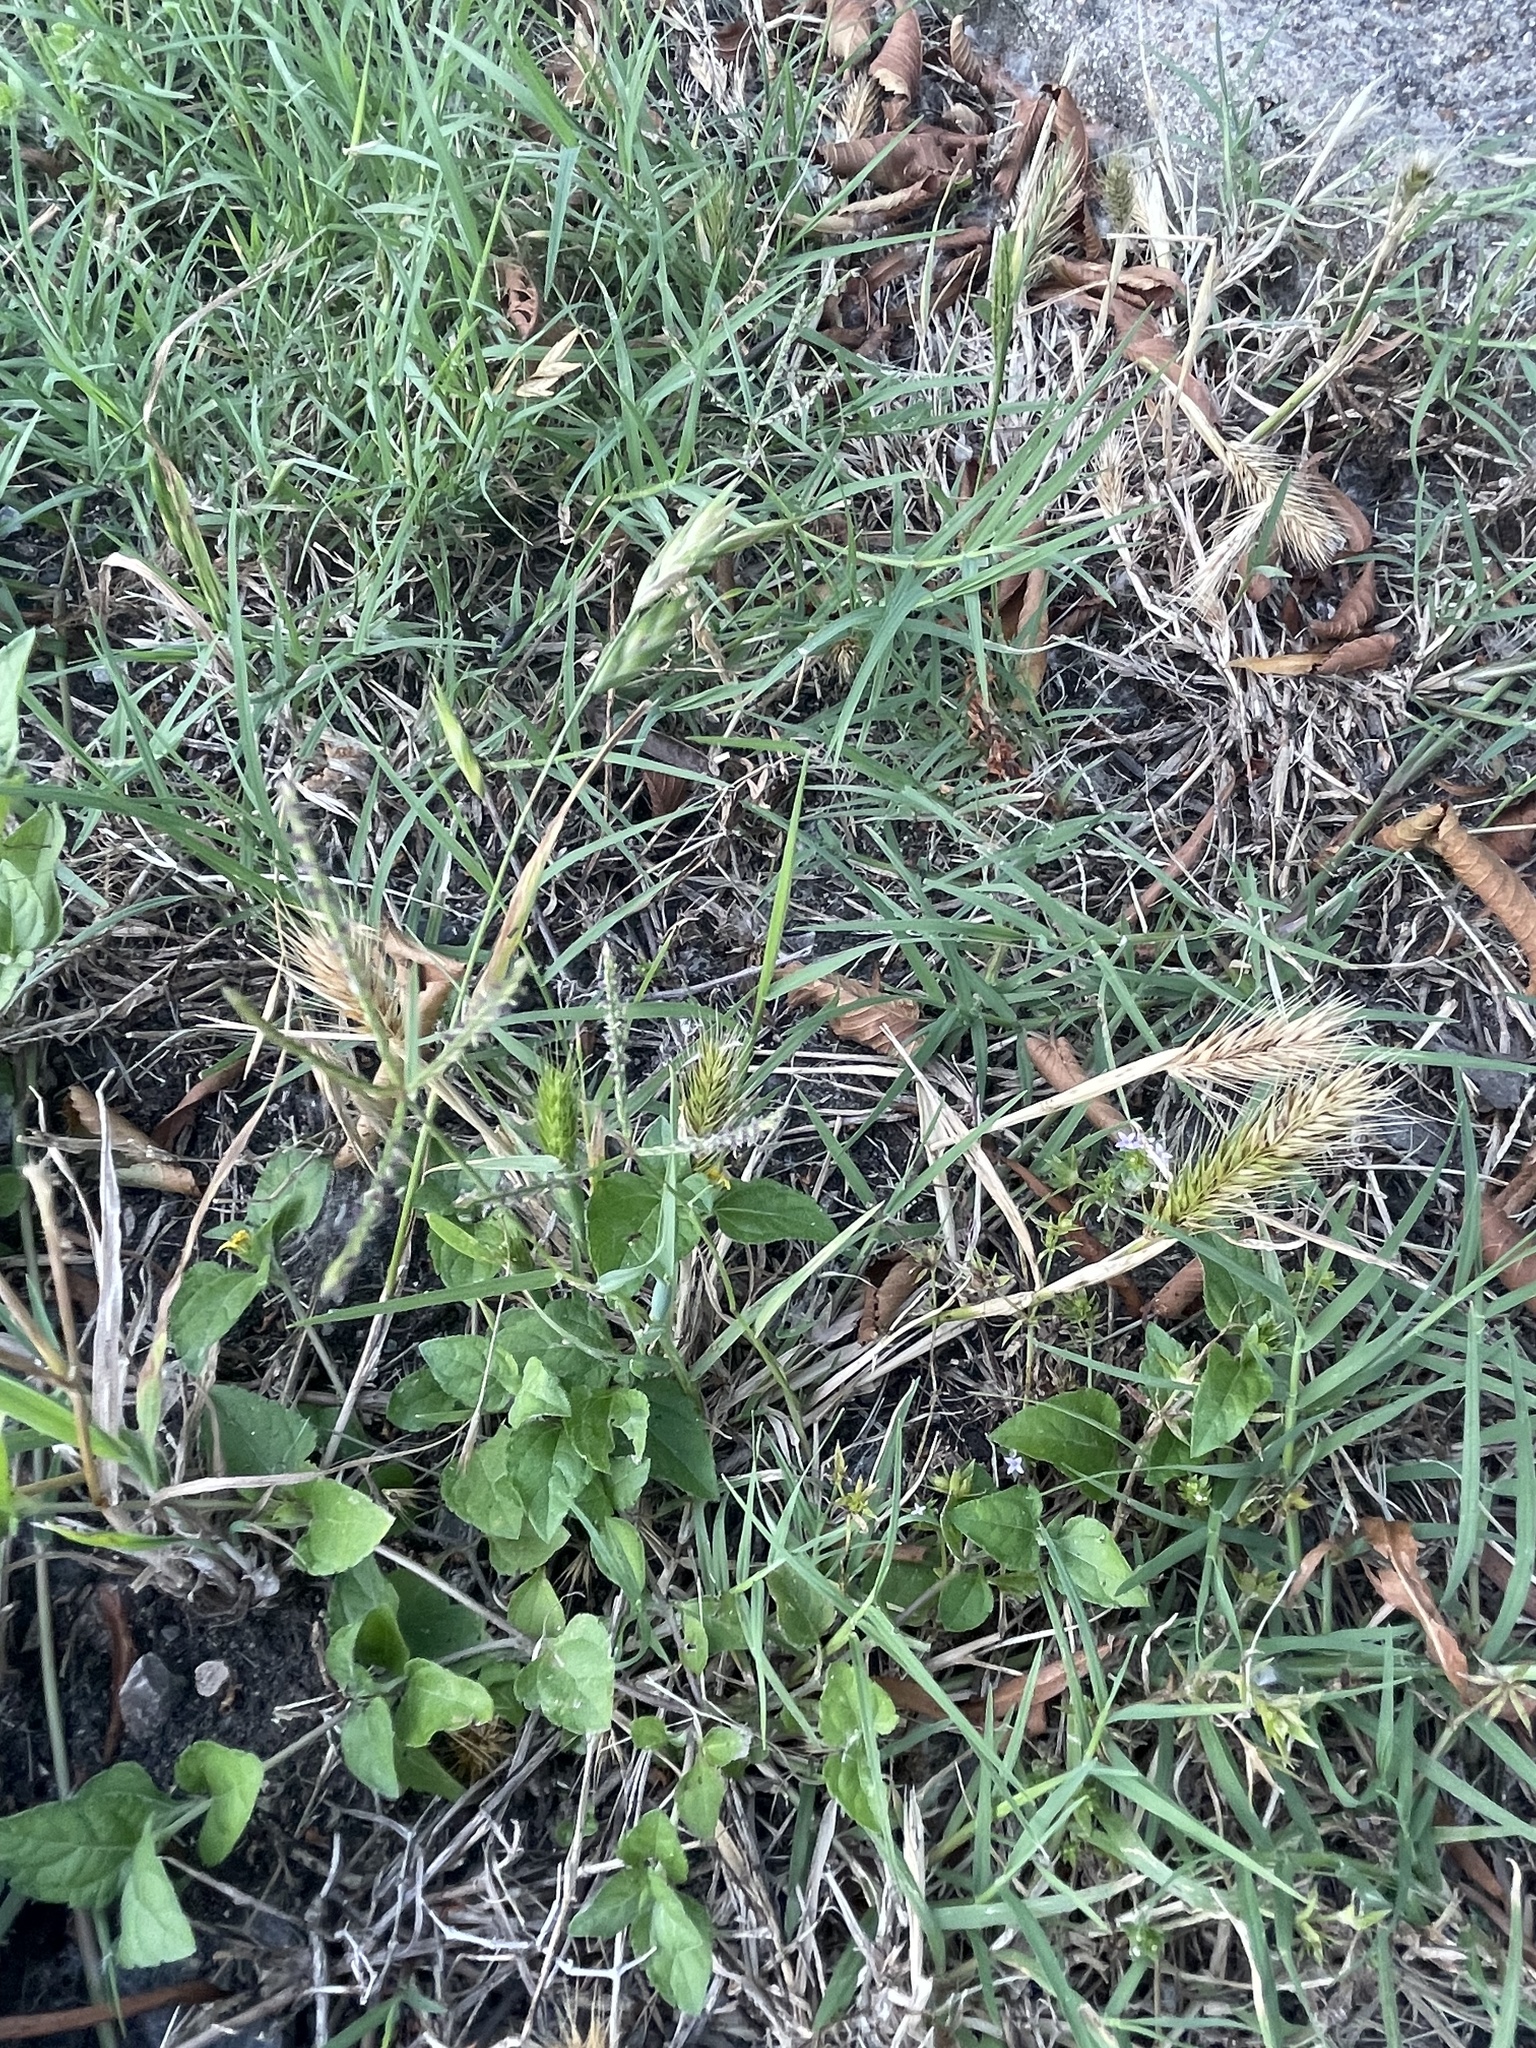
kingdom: Plantae
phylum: Tracheophyta
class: Liliopsida
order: Poales
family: Poaceae
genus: Hordeum
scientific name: Hordeum pusillum
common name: Little barley
